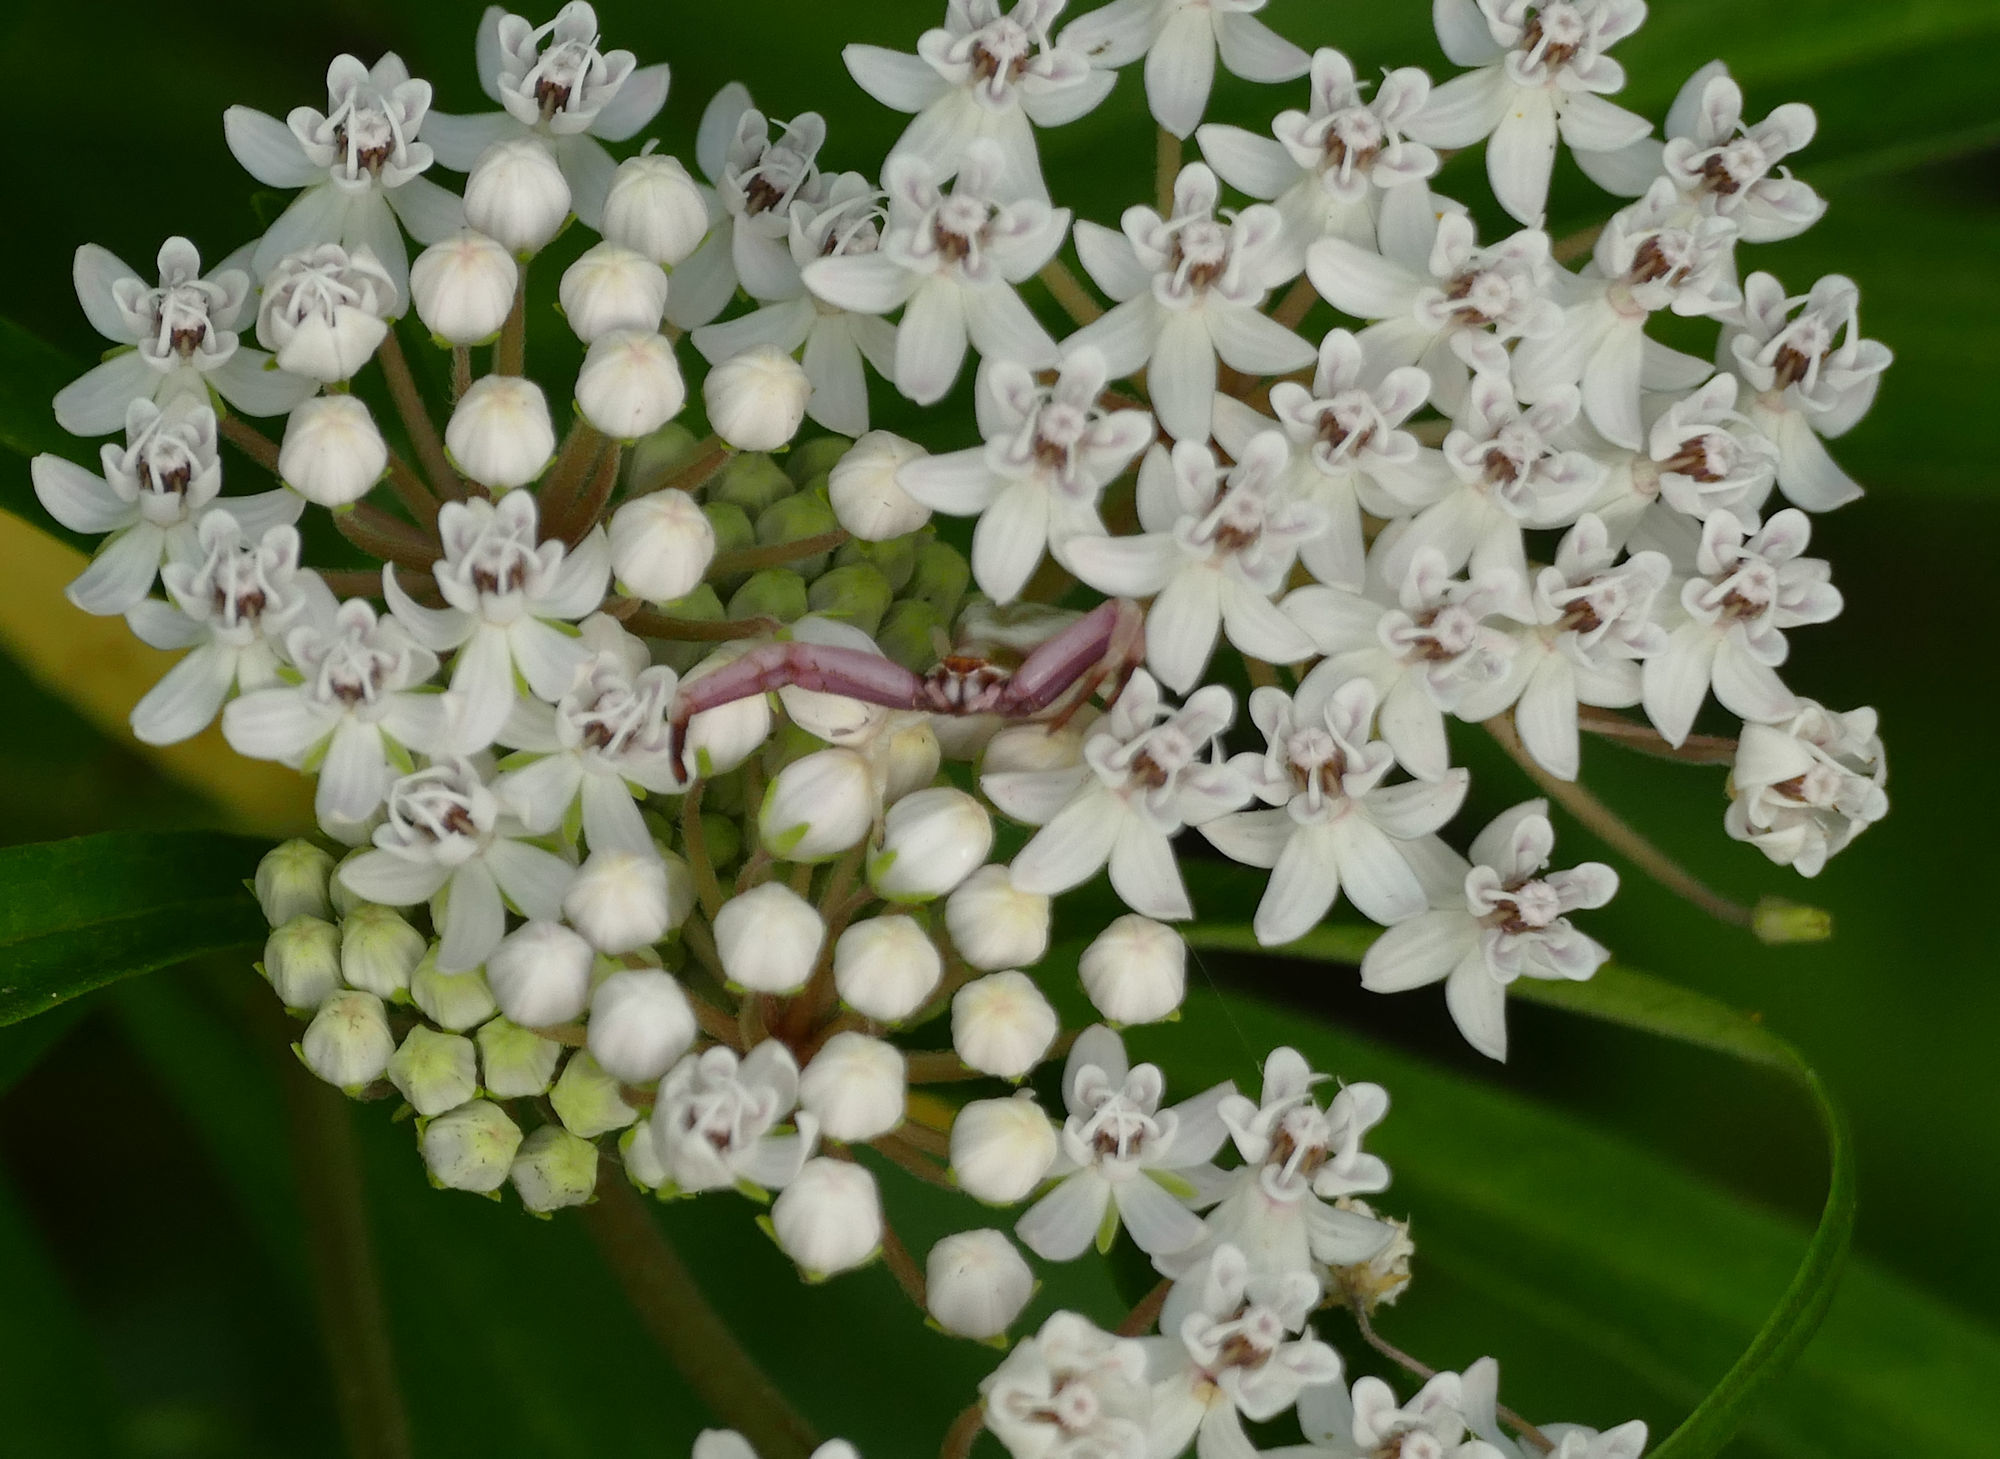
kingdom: Animalia
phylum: Arthropoda
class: Arachnida
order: Araneae
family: Thomisidae
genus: Misumenoides
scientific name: Misumenoides formosipes
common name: White-banded crab spider
